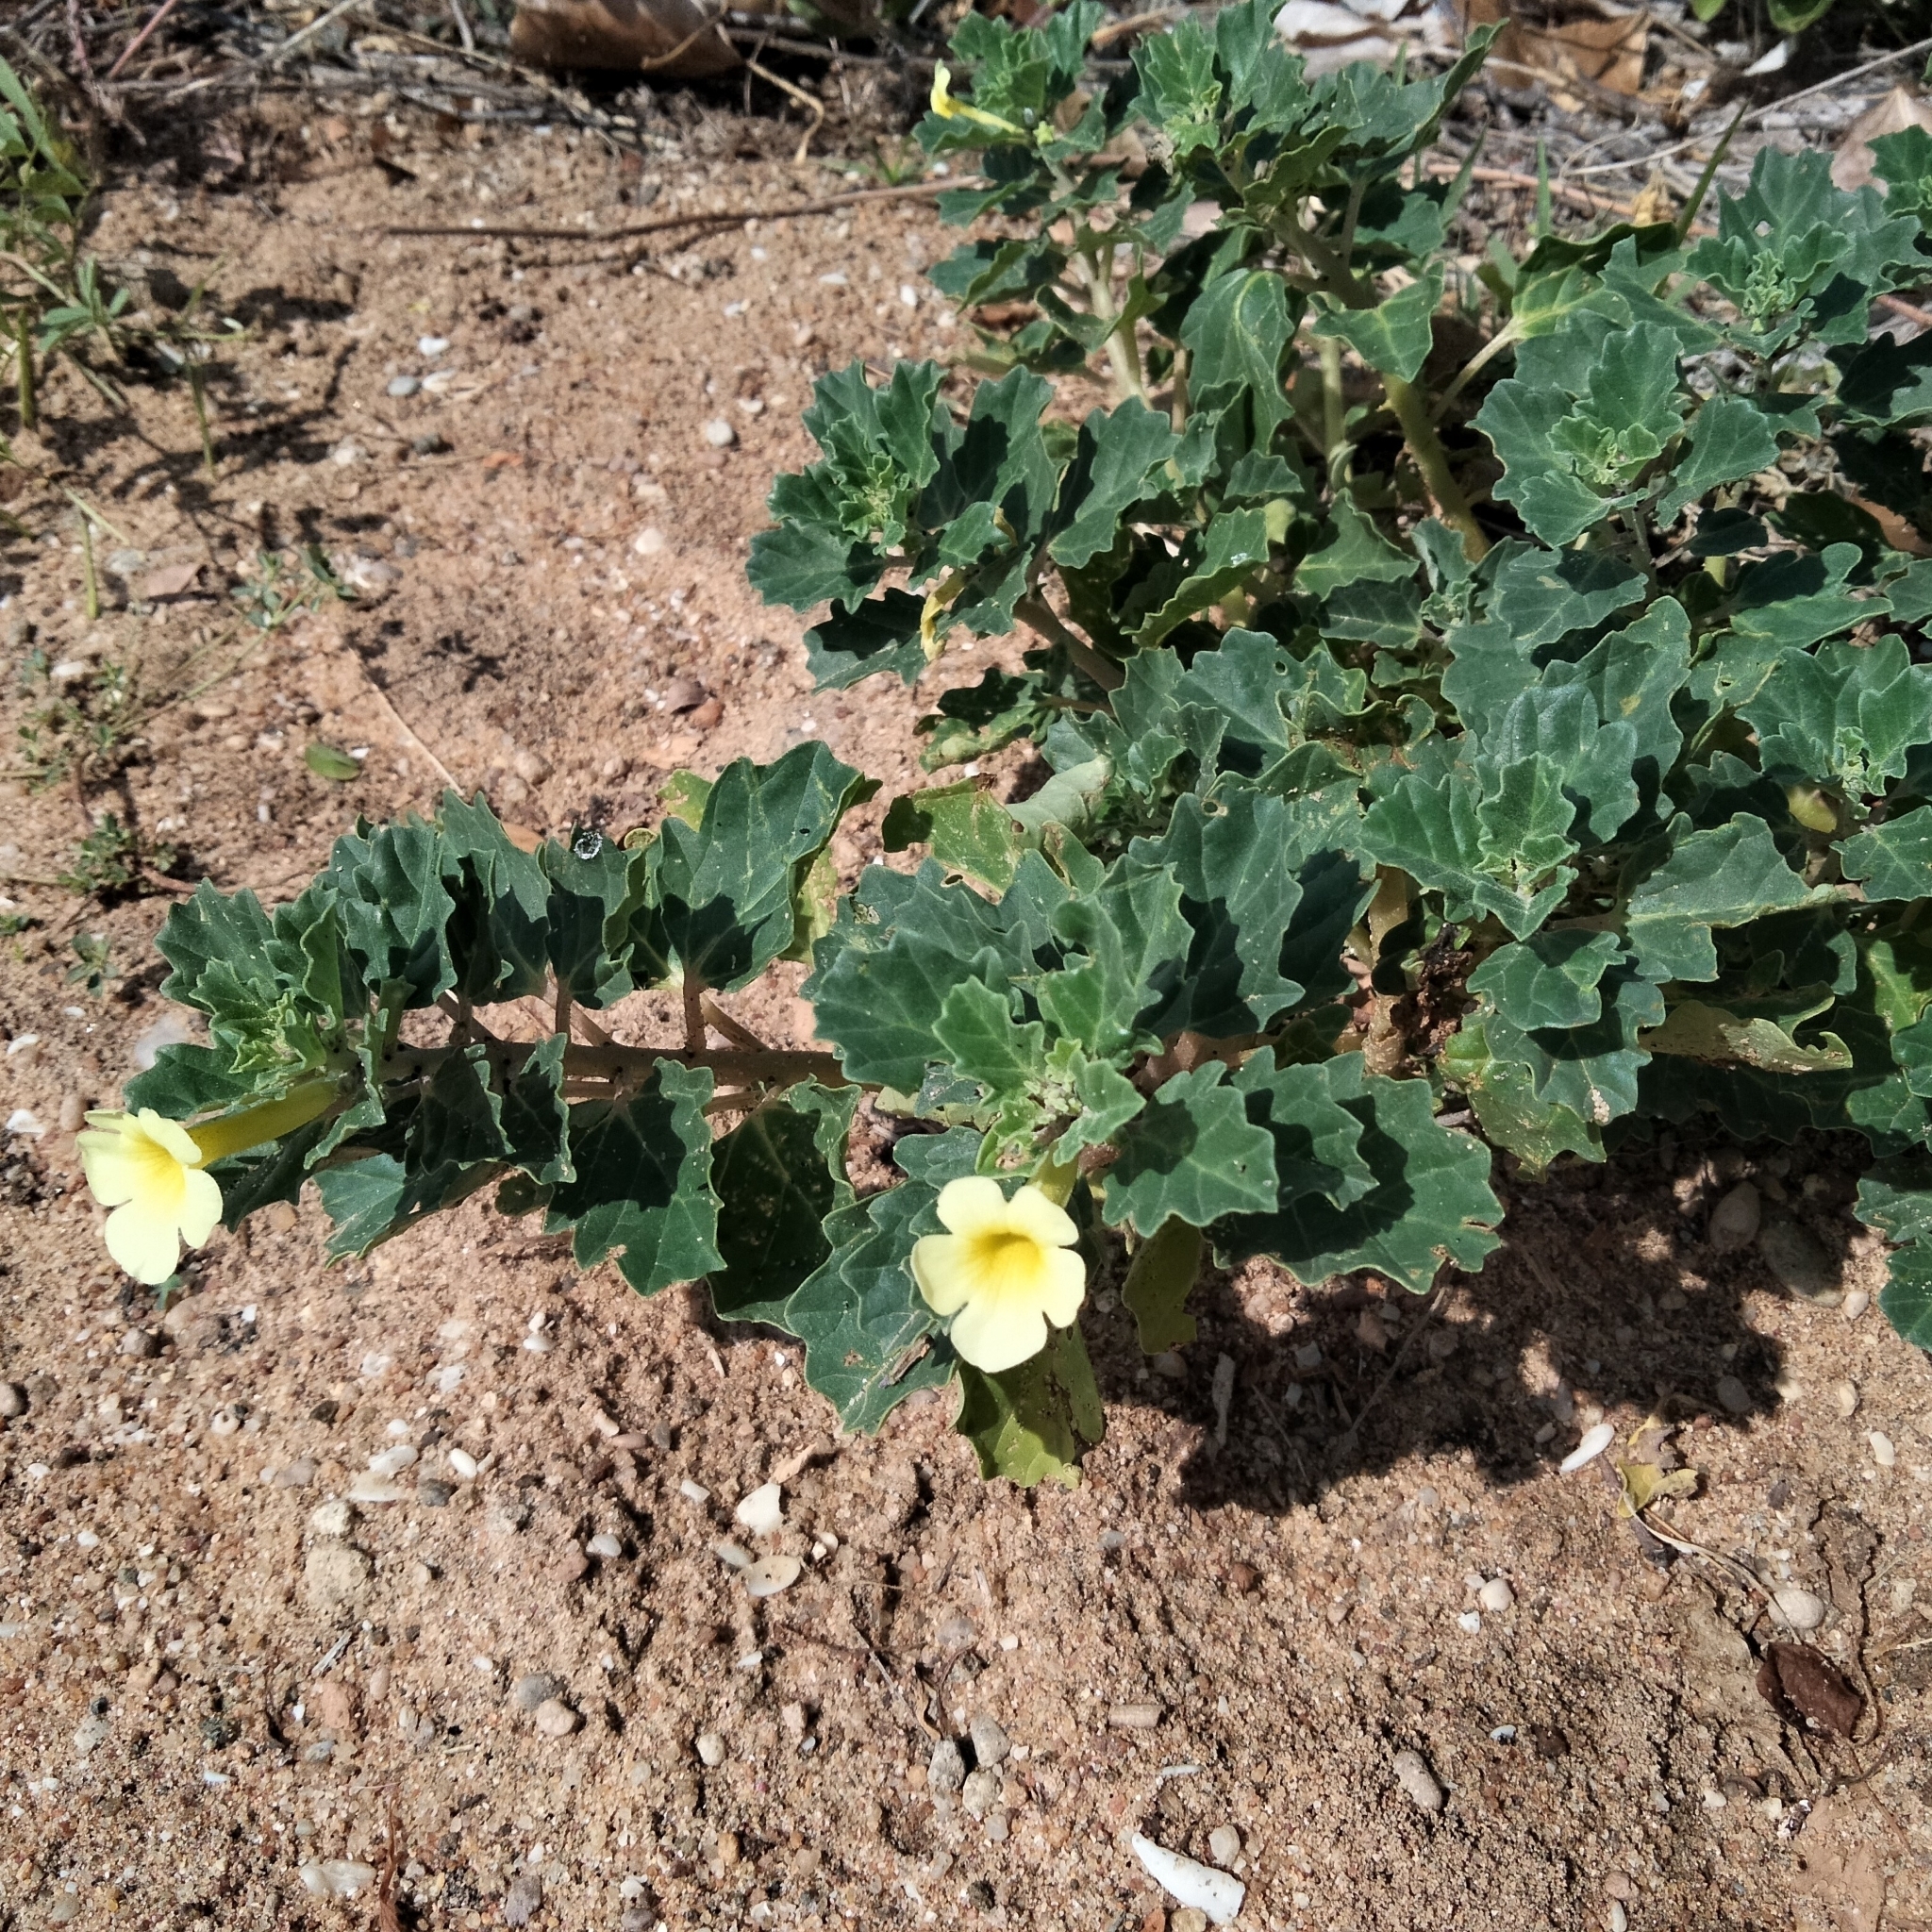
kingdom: Plantae
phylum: Tracheophyta
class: Magnoliopsida
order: Lamiales
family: Pedaliaceae
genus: Pedalium
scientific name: Pedalium murex
